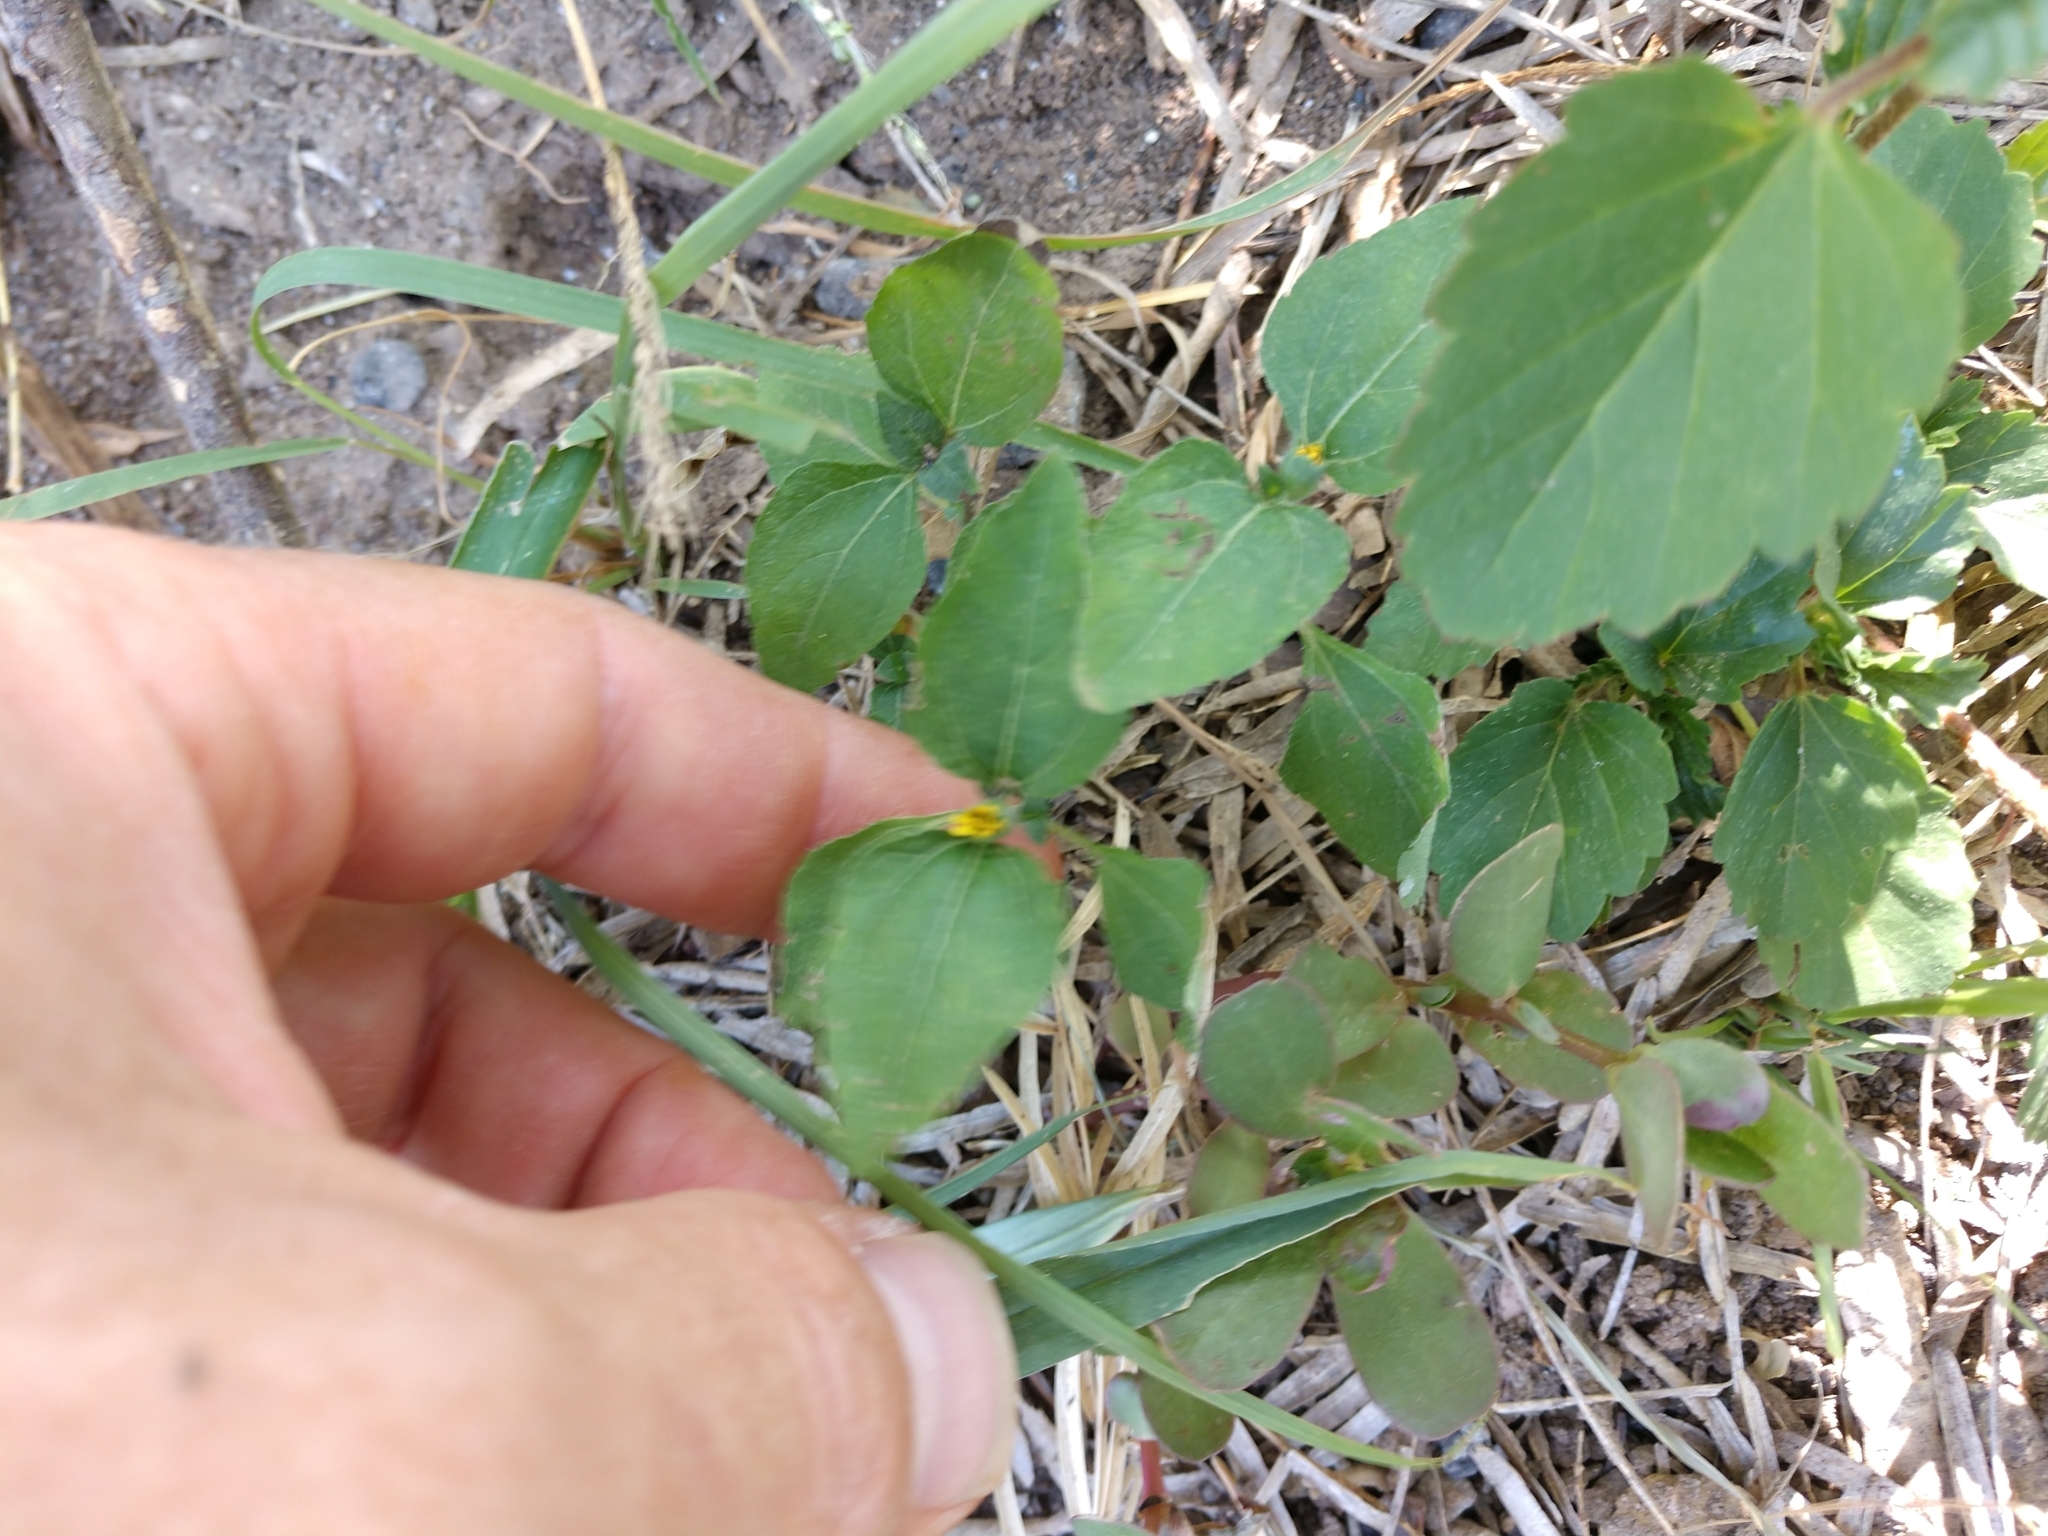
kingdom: Plantae
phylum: Tracheophyta
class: Magnoliopsida
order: Asterales
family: Asteraceae
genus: Calyptocarpus
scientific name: Calyptocarpus vialis
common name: Straggler daisy
